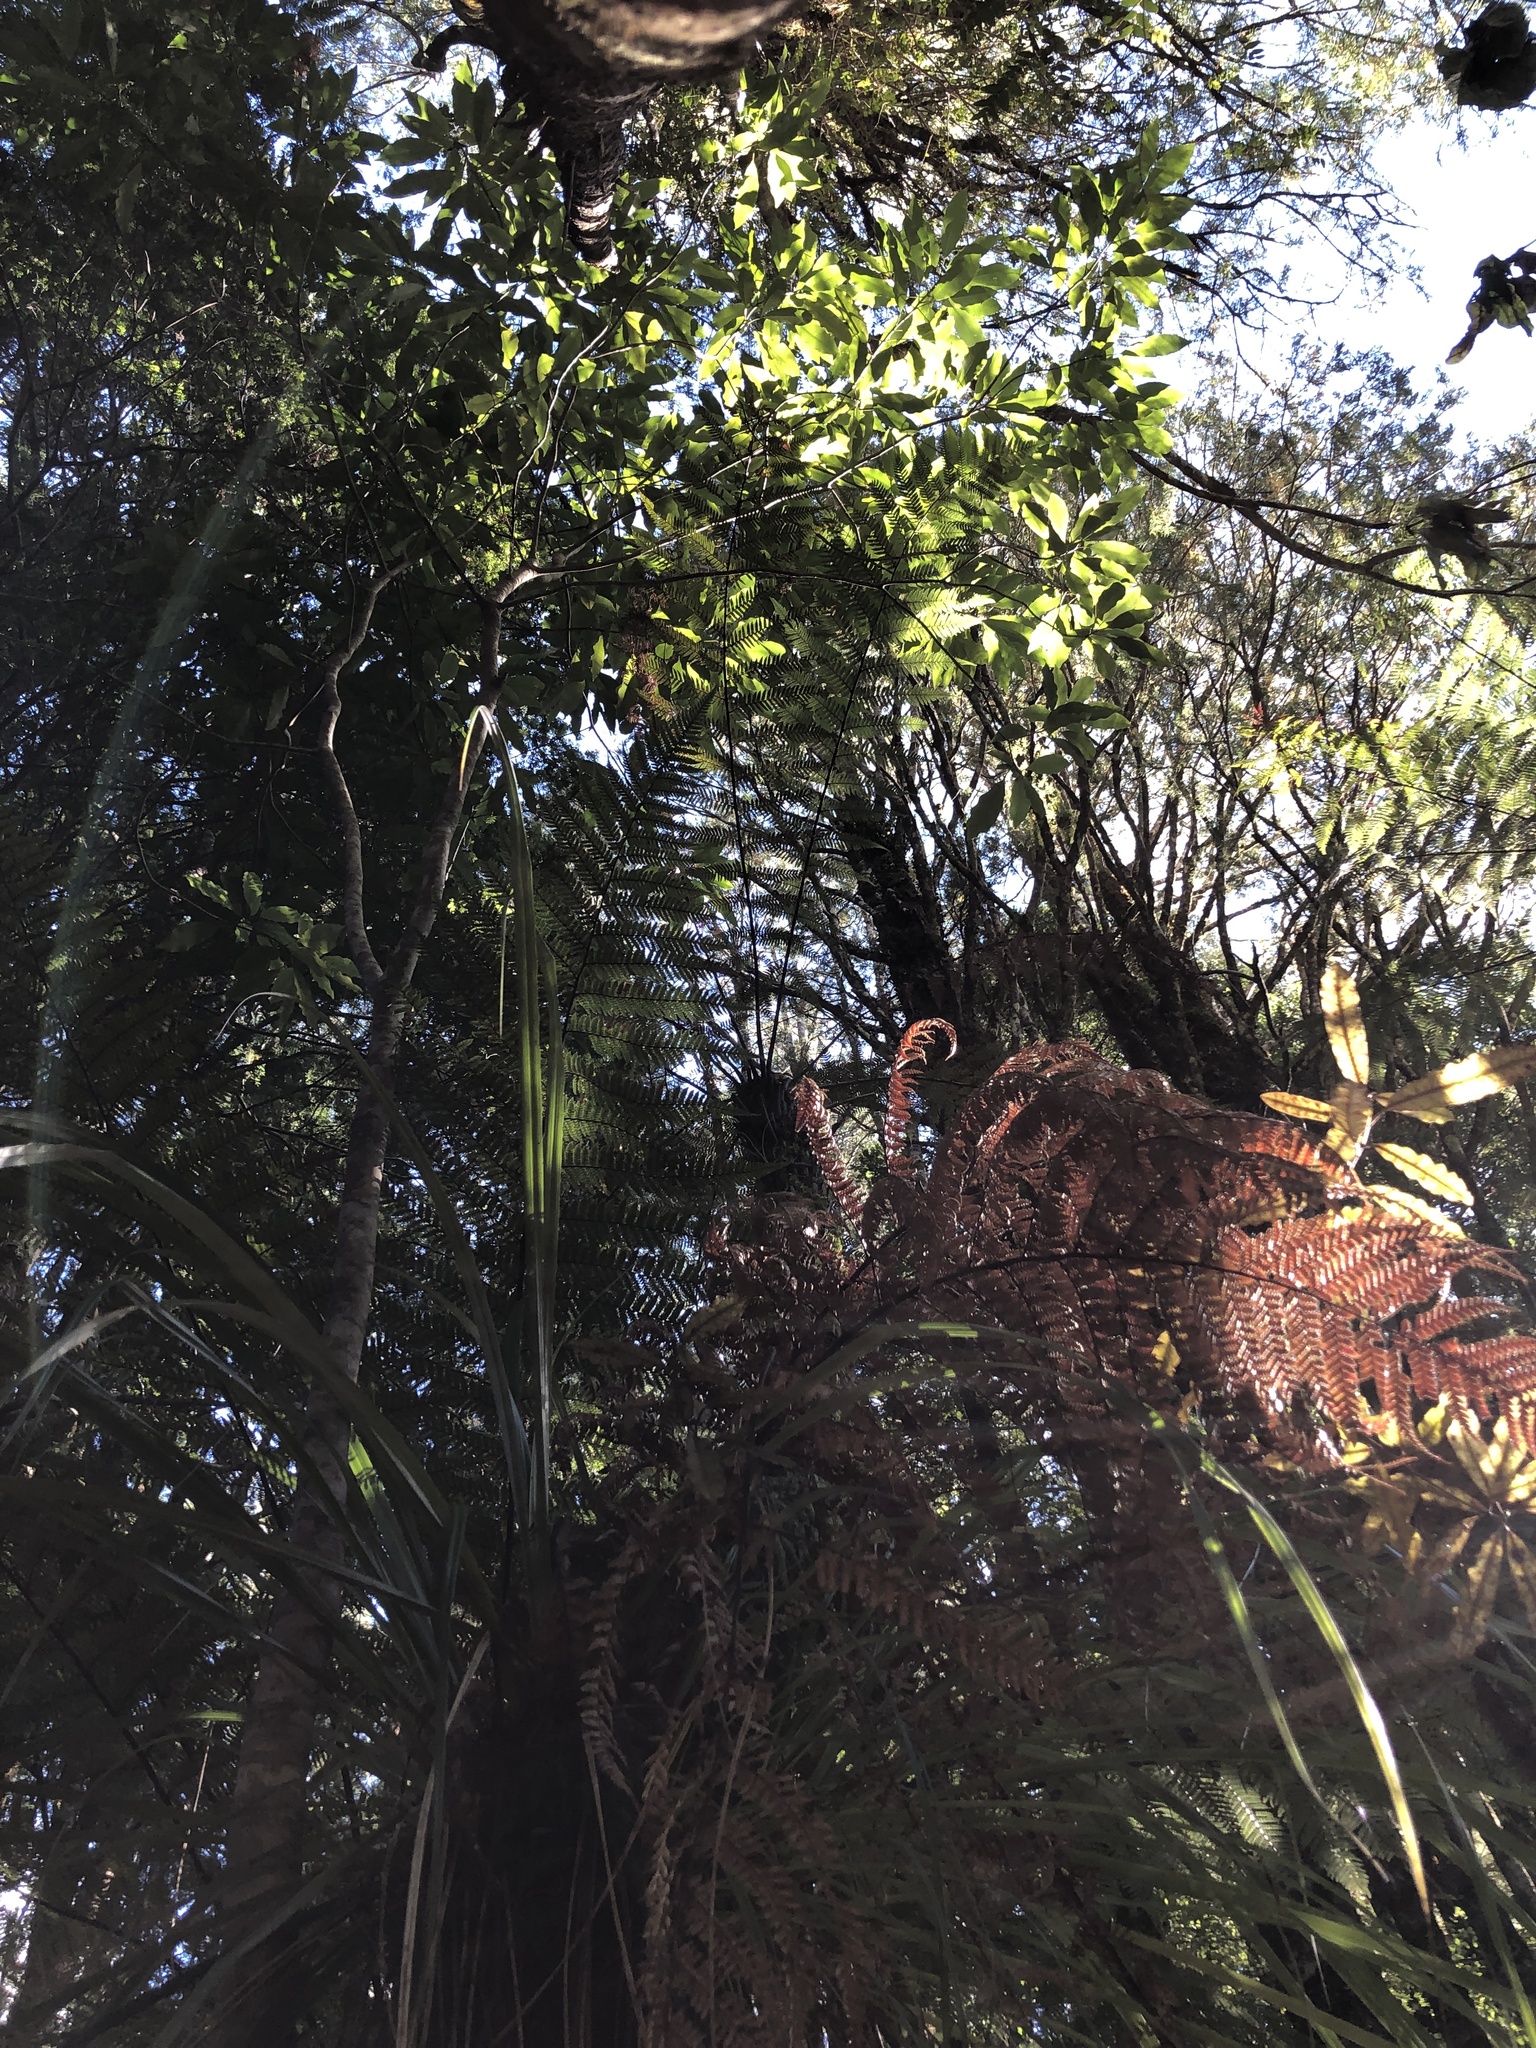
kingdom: Plantae
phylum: Tracheophyta
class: Magnoliopsida
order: Apiales
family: Araliaceae
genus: Raukaua
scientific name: Raukaua edgerleyi
